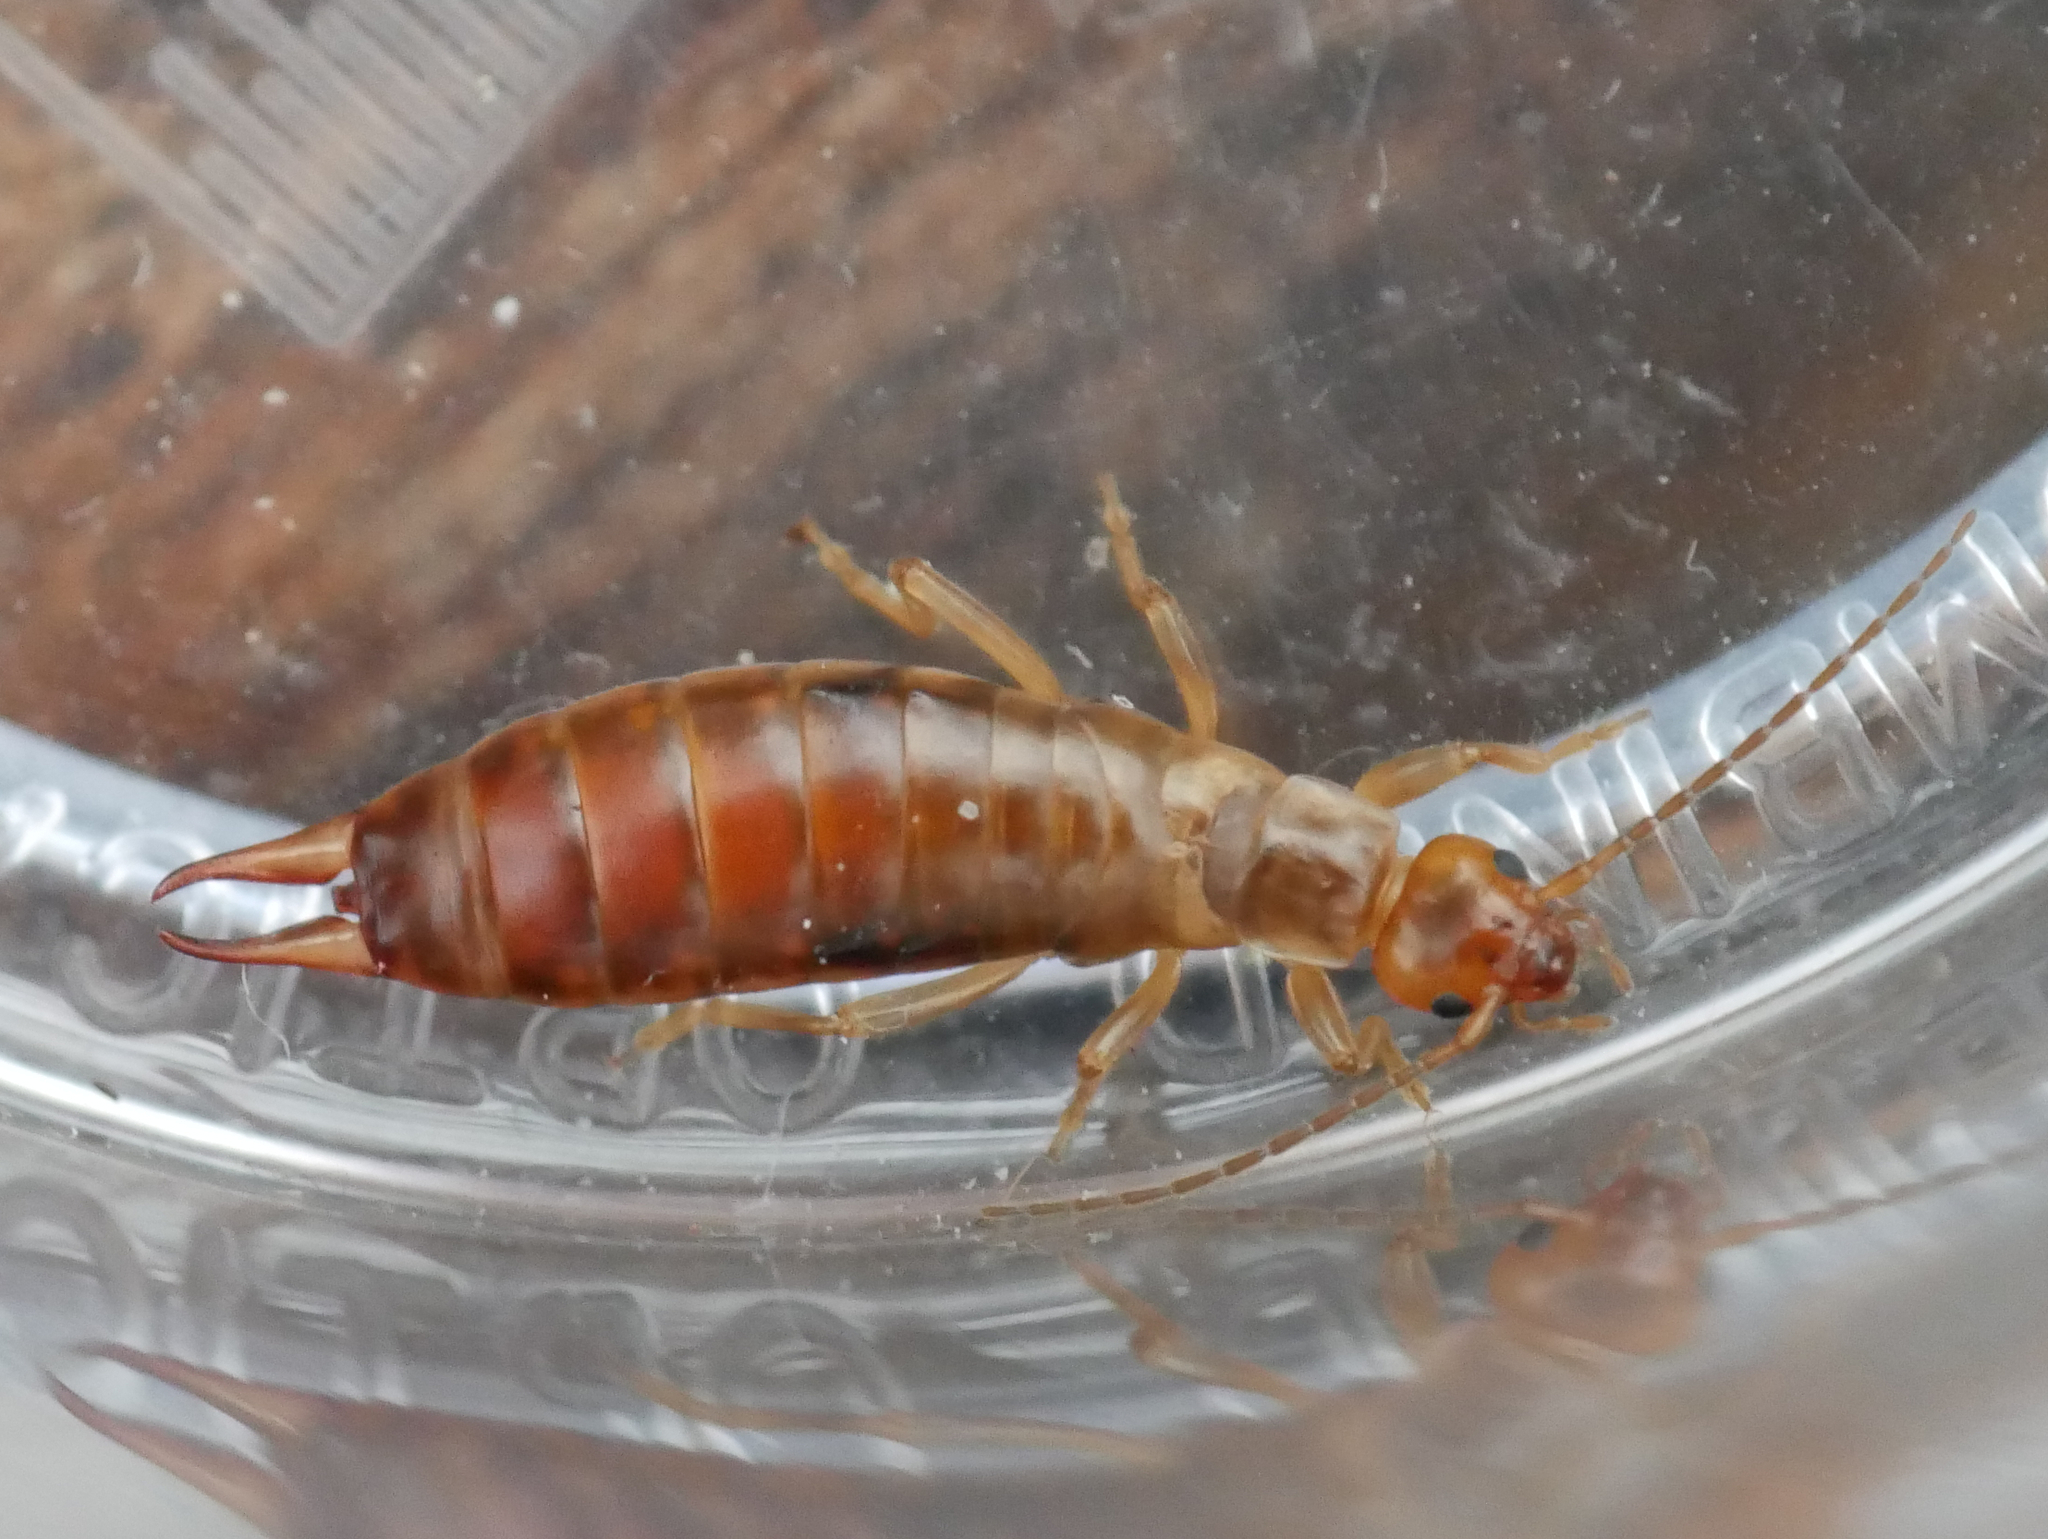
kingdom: Animalia
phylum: Arthropoda
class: Insecta
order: Dermaptera
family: Forficulidae
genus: Chelidurella
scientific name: Chelidurella acanthopygia
